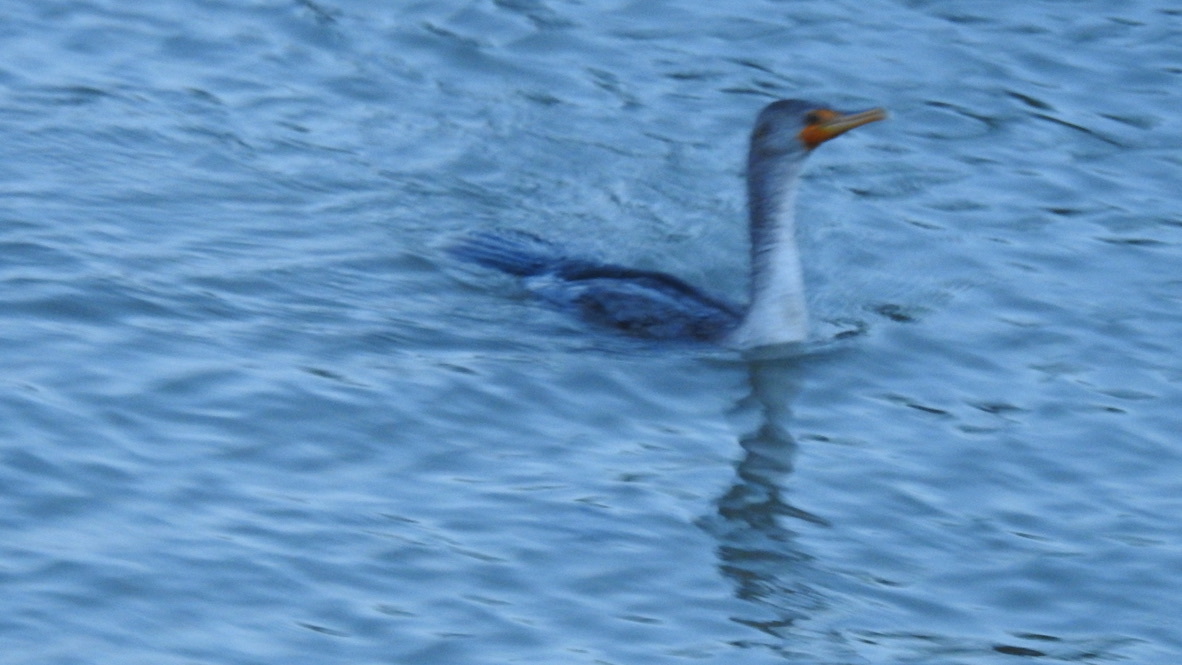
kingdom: Animalia
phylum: Chordata
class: Aves
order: Suliformes
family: Phalacrocoracidae
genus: Phalacrocorax
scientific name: Phalacrocorax auritus
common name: Double-crested cormorant
